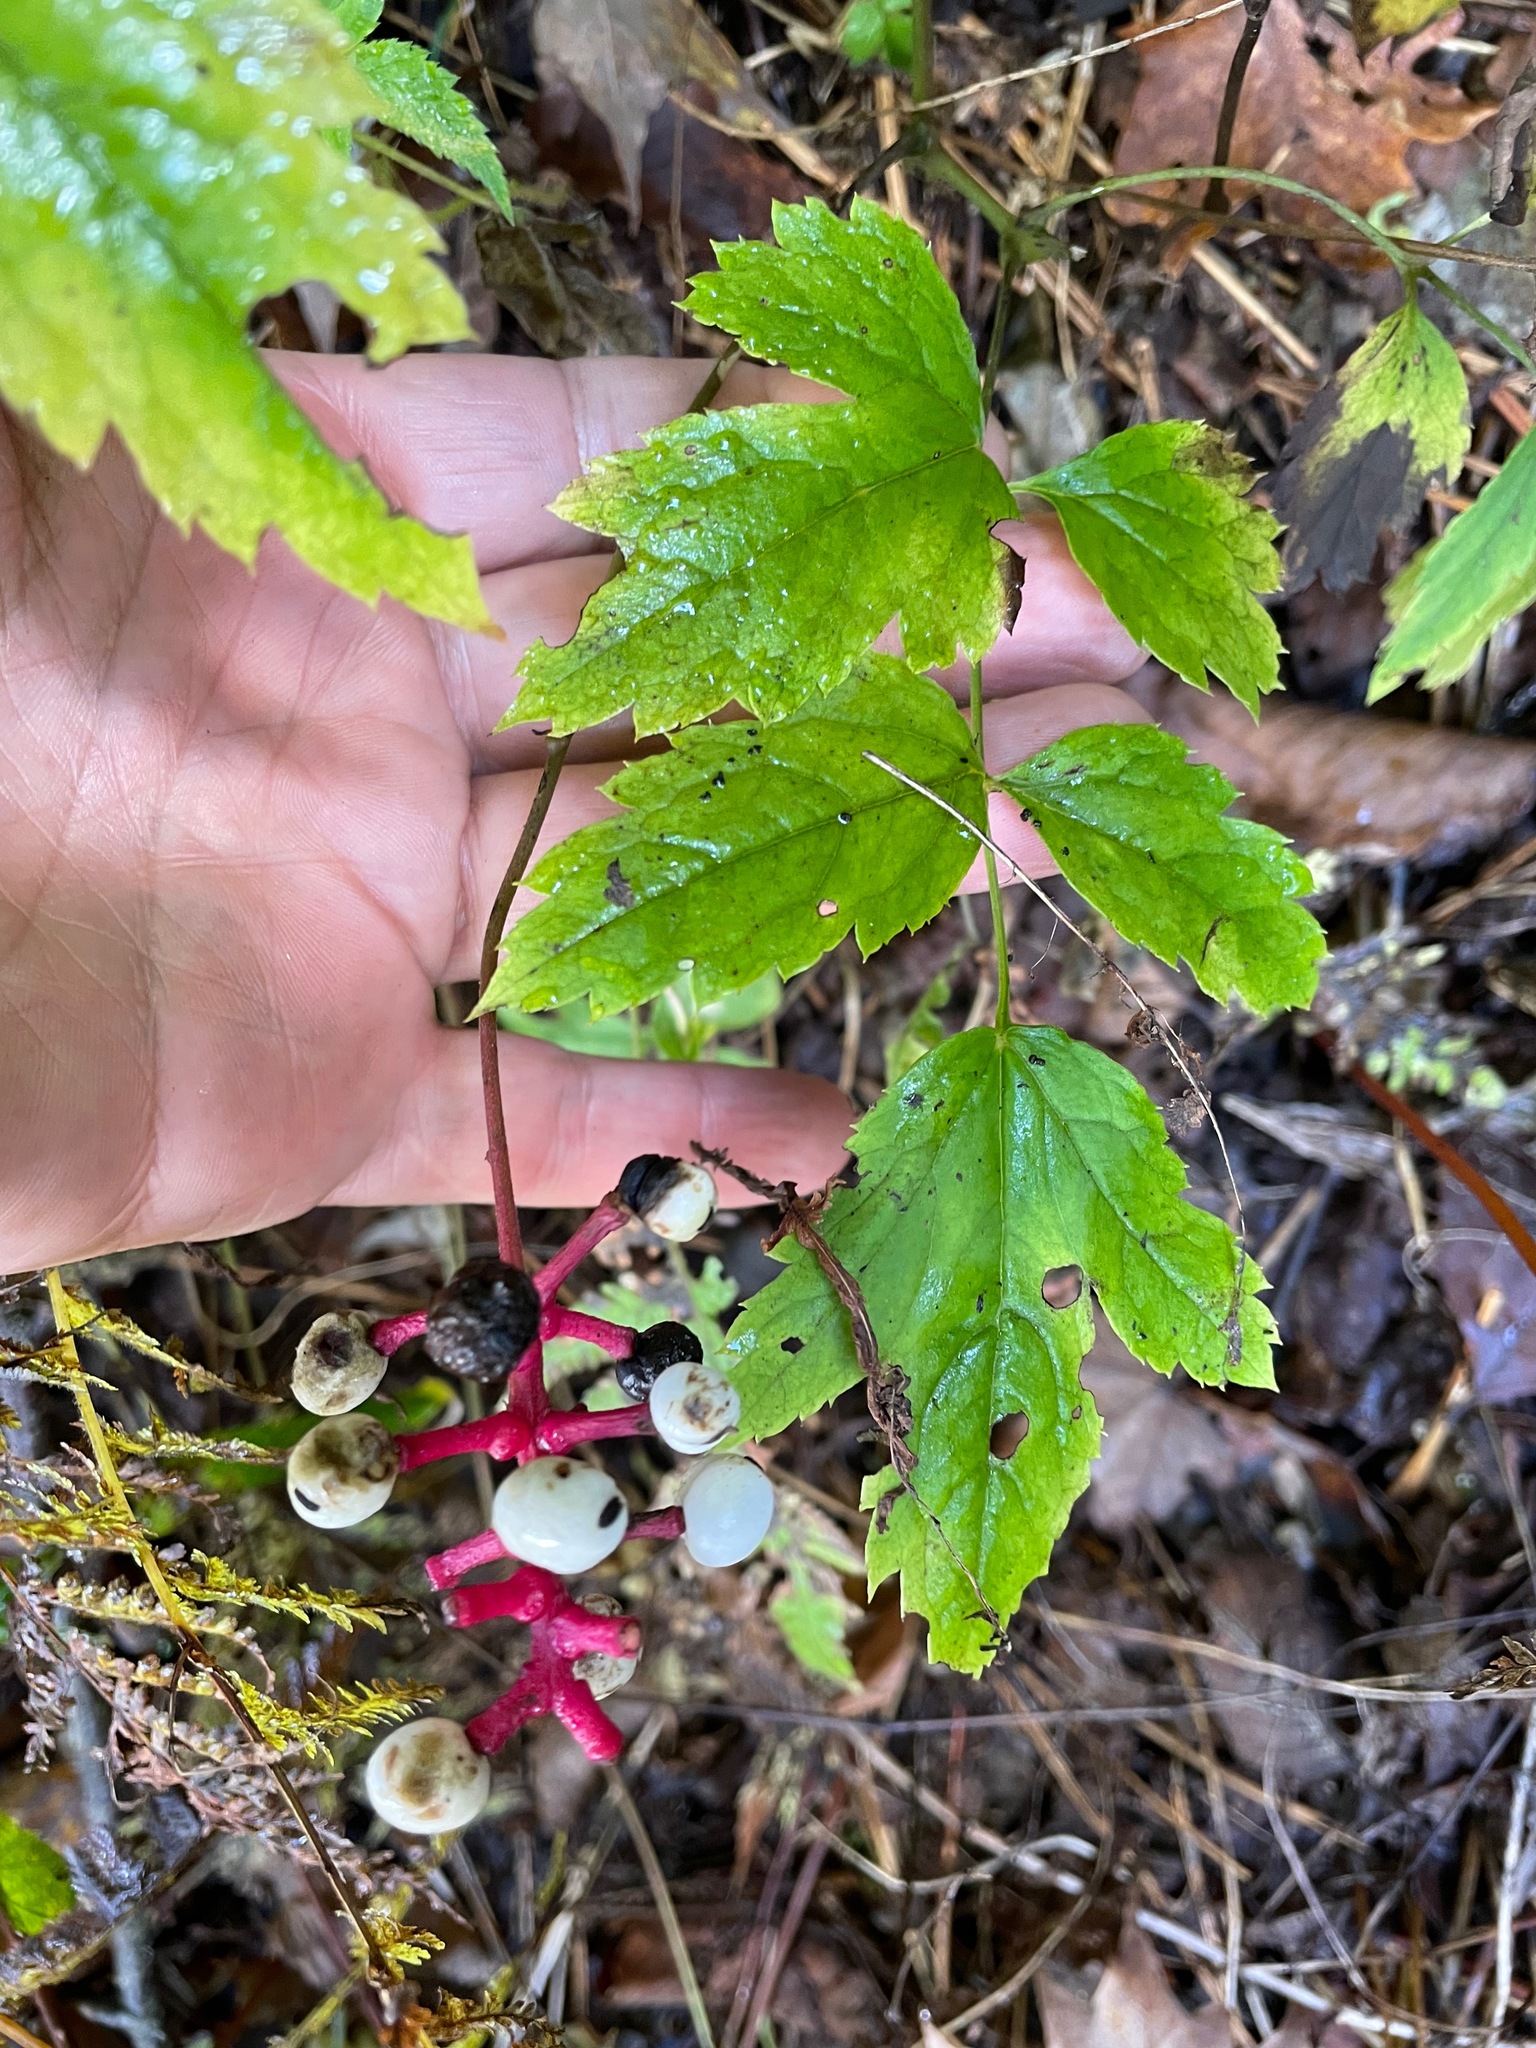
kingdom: Plantae
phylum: Tracheophyta
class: Magnoliopsida
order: Ranunculales
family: Ranunculaceae
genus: Actaea
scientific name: Actaea pachypoda
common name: Doll's-eyes
